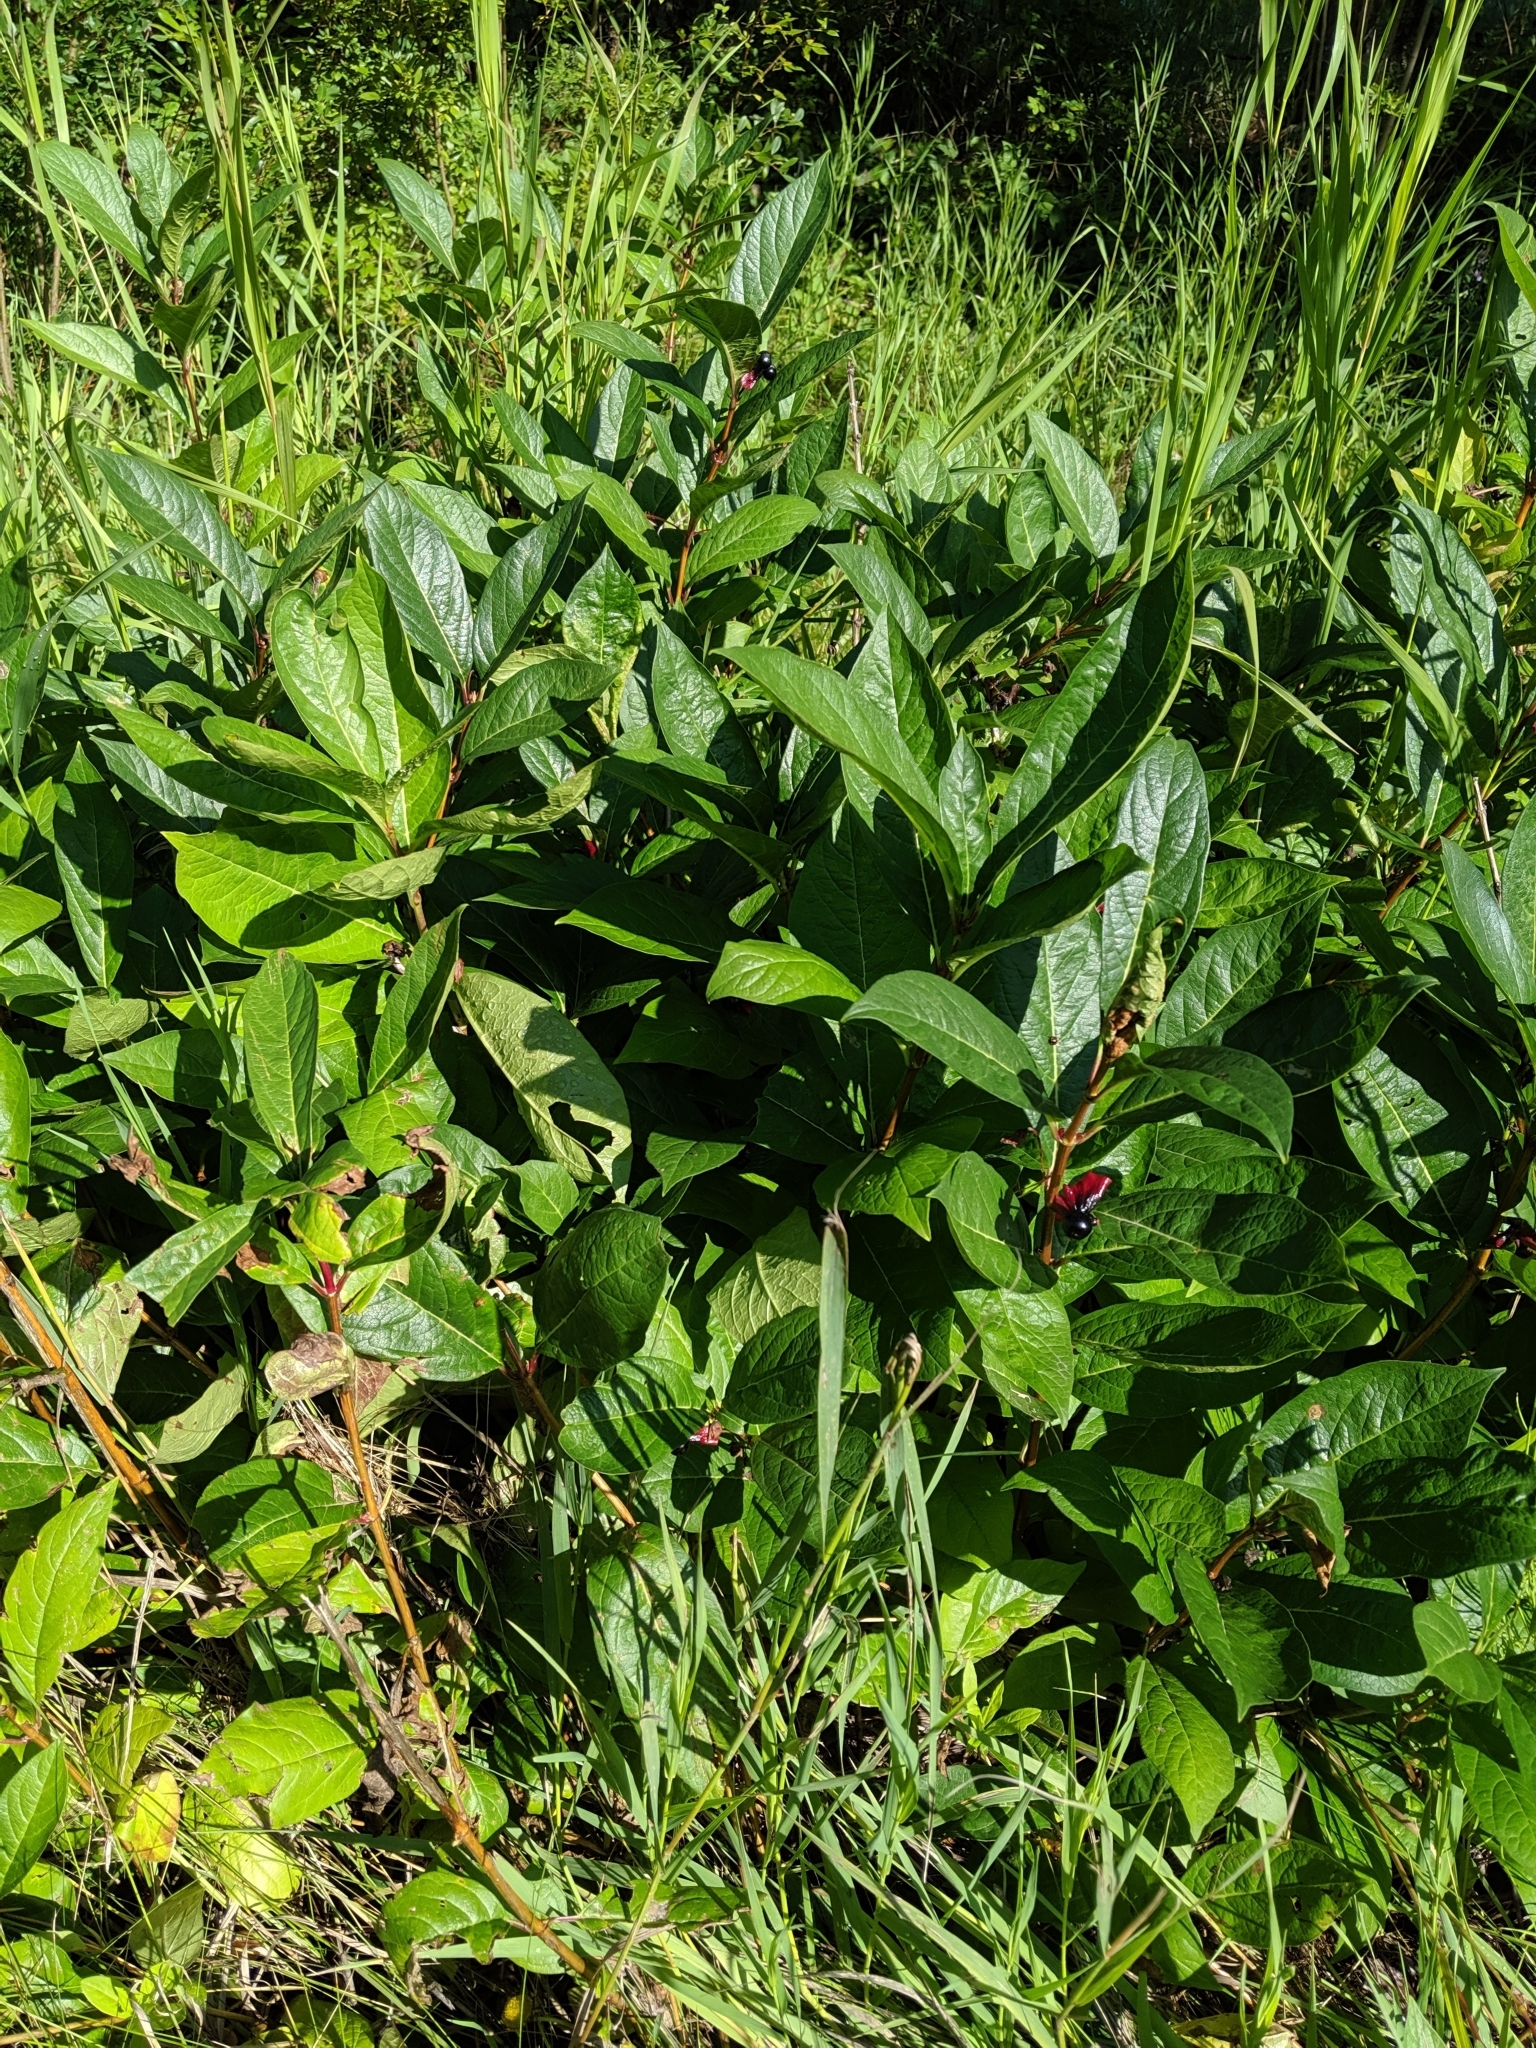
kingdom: Plantae
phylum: Tracheophyta
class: Magnoliopsida
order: Dipsacales
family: Caprifoliaceae
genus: Lonicera
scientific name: Lonicera involucrata
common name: Californian honeysuckle
